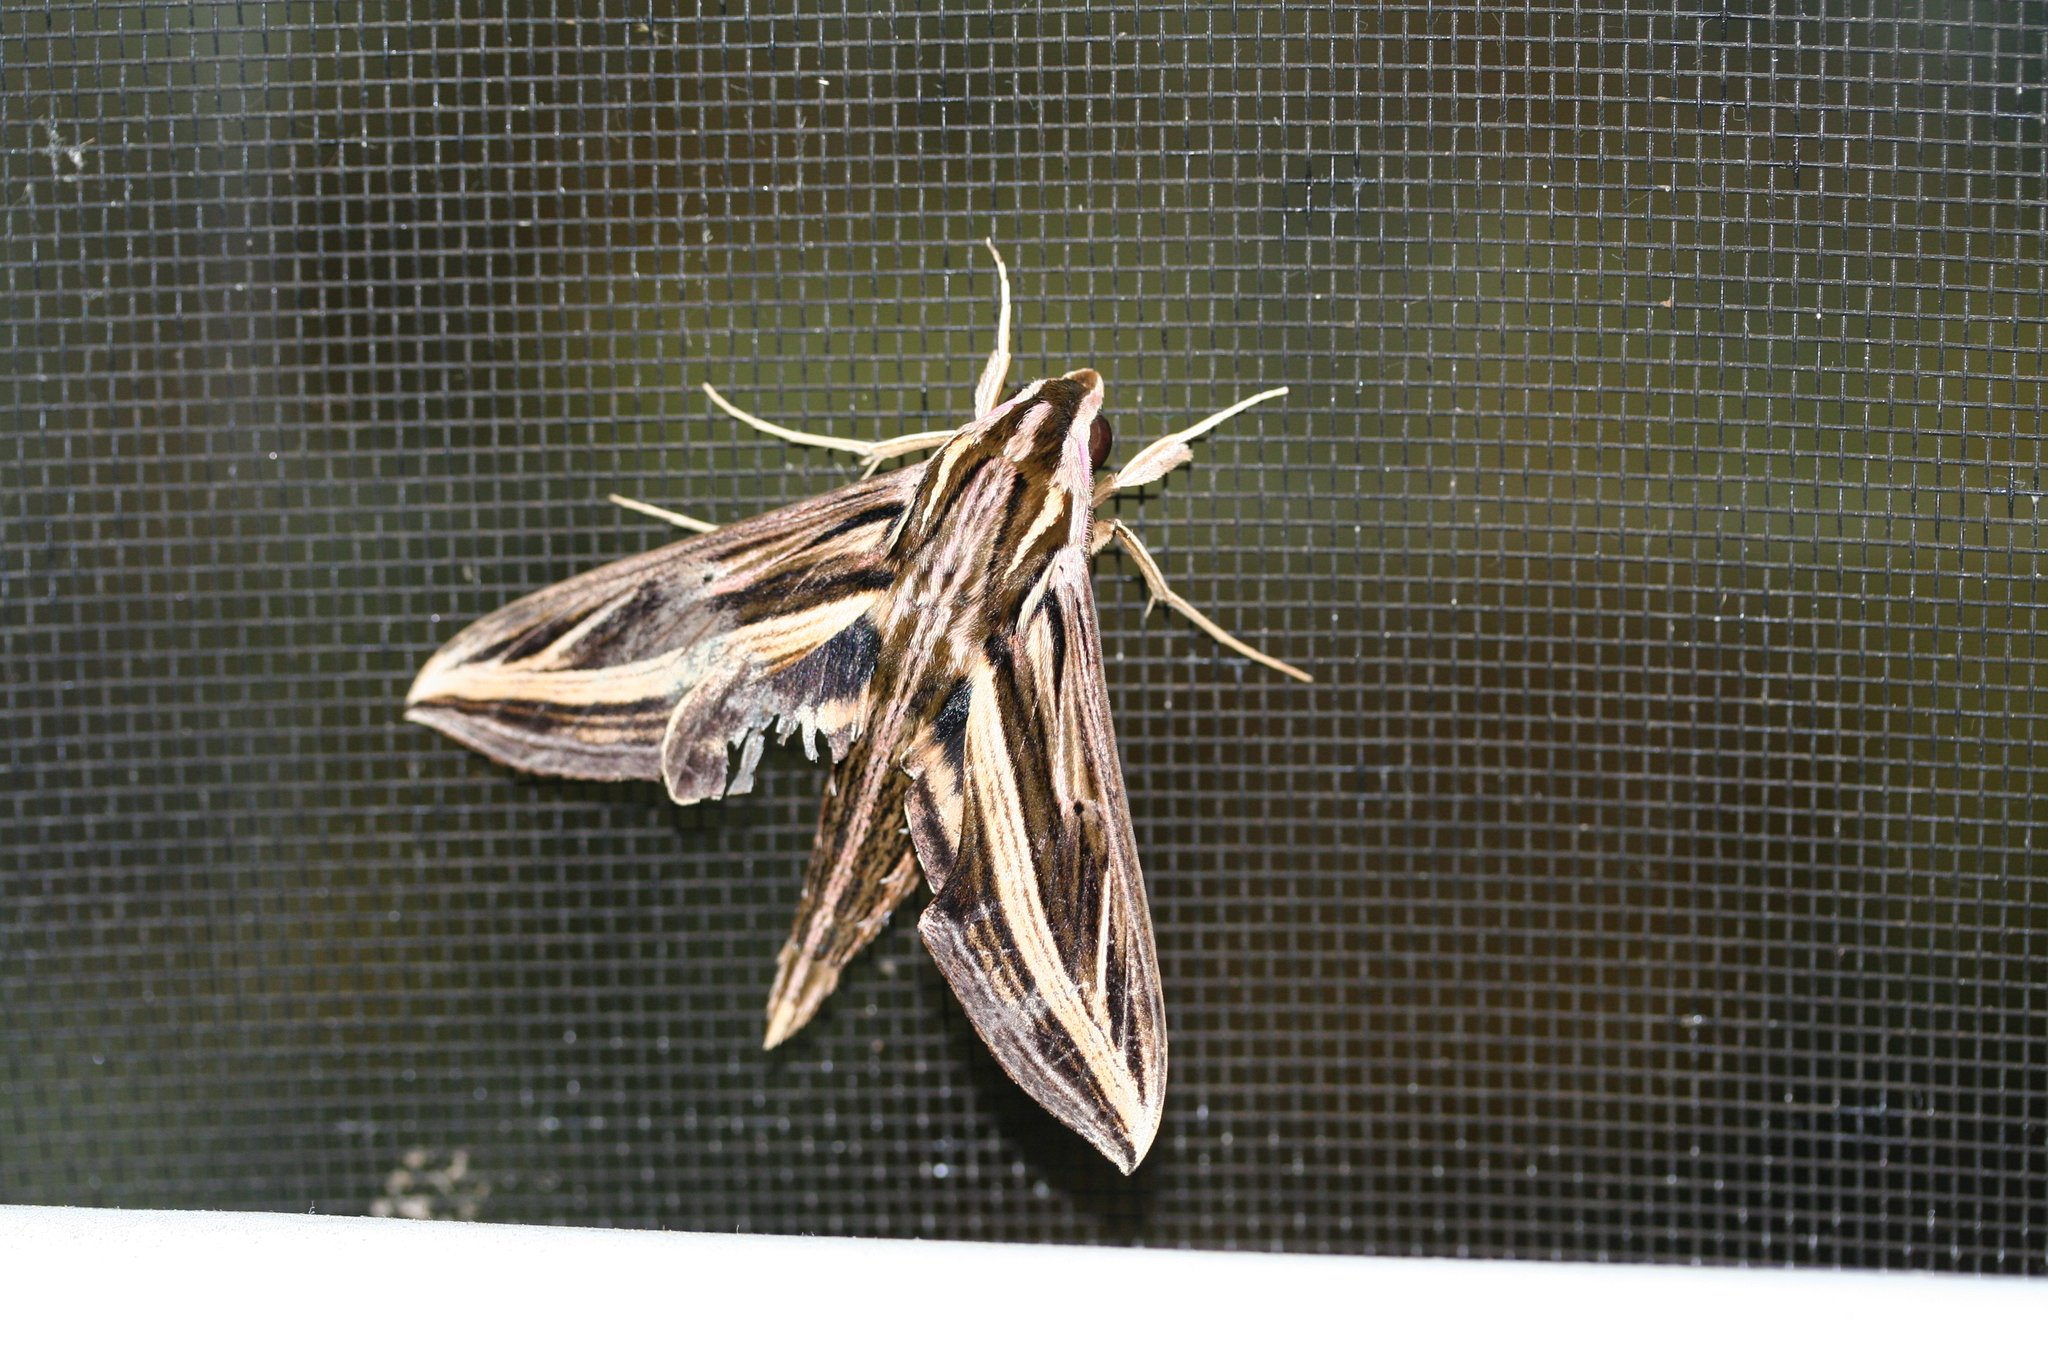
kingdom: Animalia
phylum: Arthropoda
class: Insecta
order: Lepidoptera
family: Sphingidae
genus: Hippotion
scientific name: Hippotion geryon
